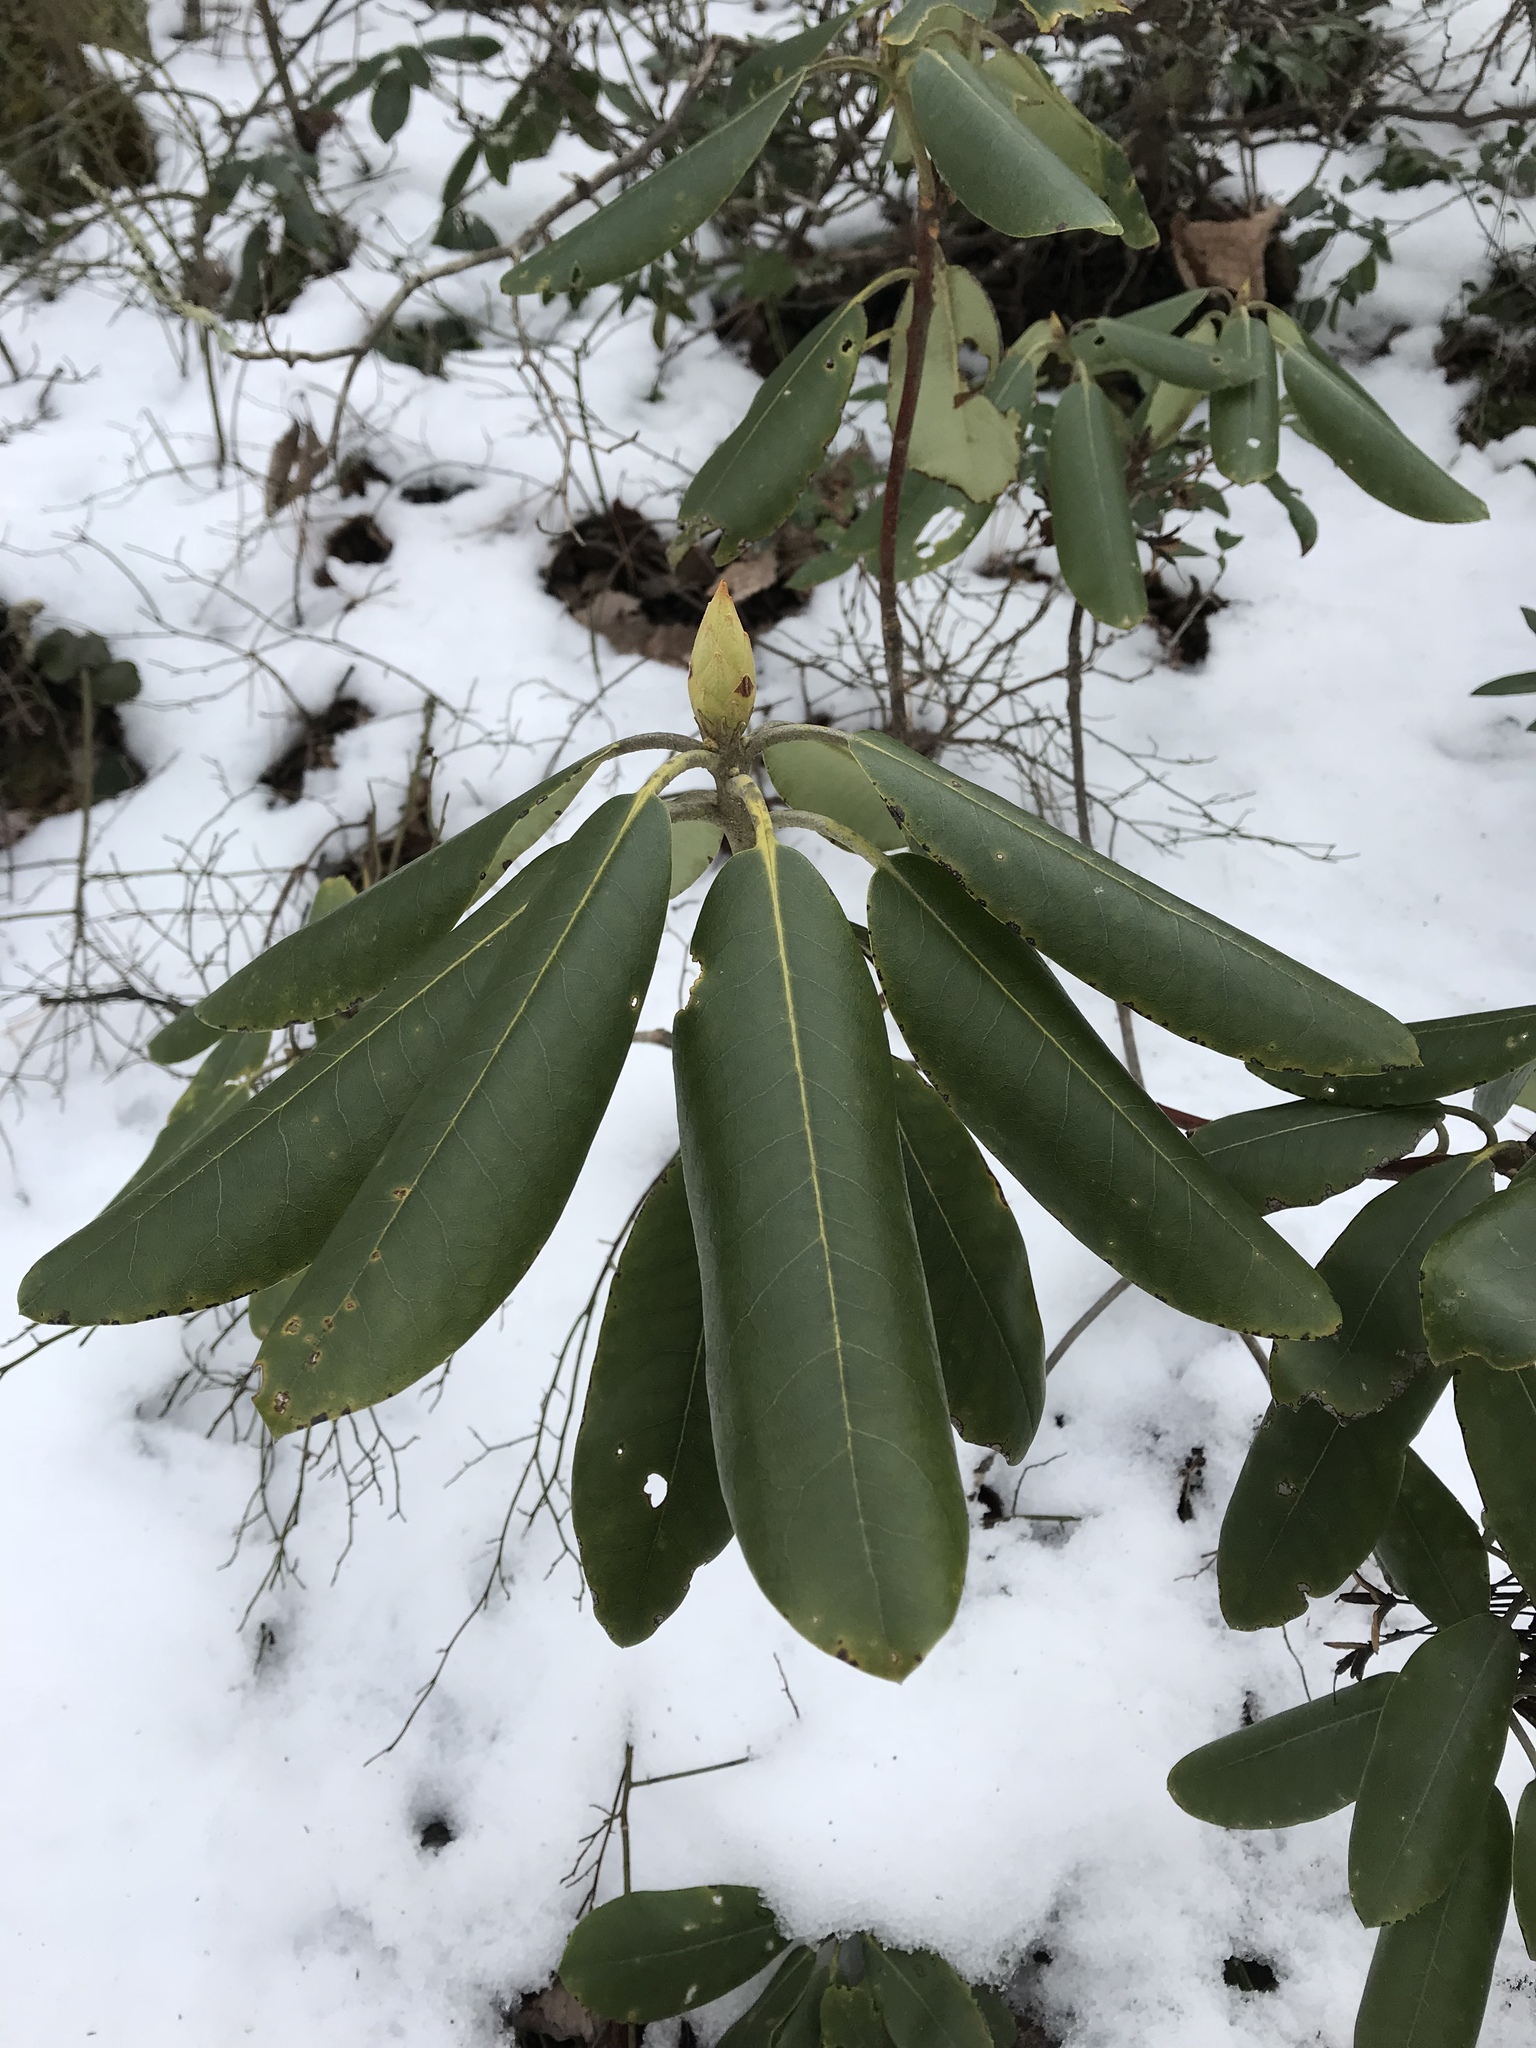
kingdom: Plantae
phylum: Tracheophyta
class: Magnoliopsida
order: Ericales
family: Ericaceae
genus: Rhododendron
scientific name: Rhododendron catawbiense
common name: Catawba rhododendron
